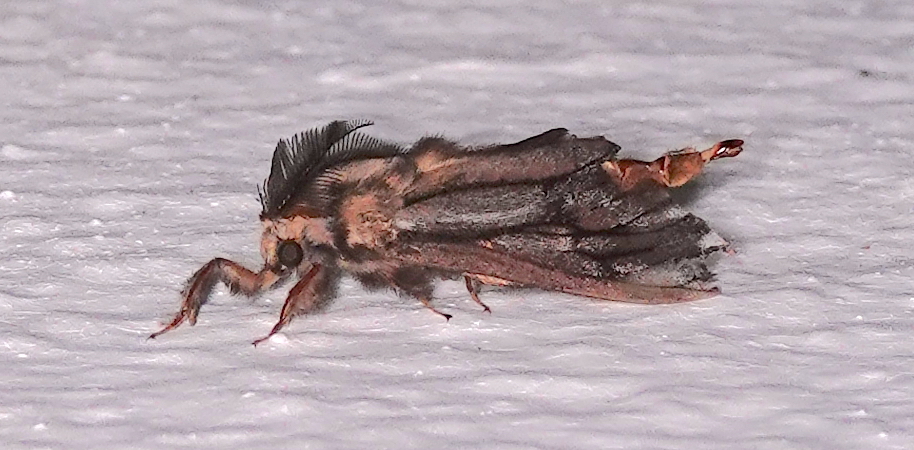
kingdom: Animalia
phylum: Arthropoda
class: Insecta
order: Lepidoptera
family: Psychidae
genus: Eumeta
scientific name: Eumeta variegatus
